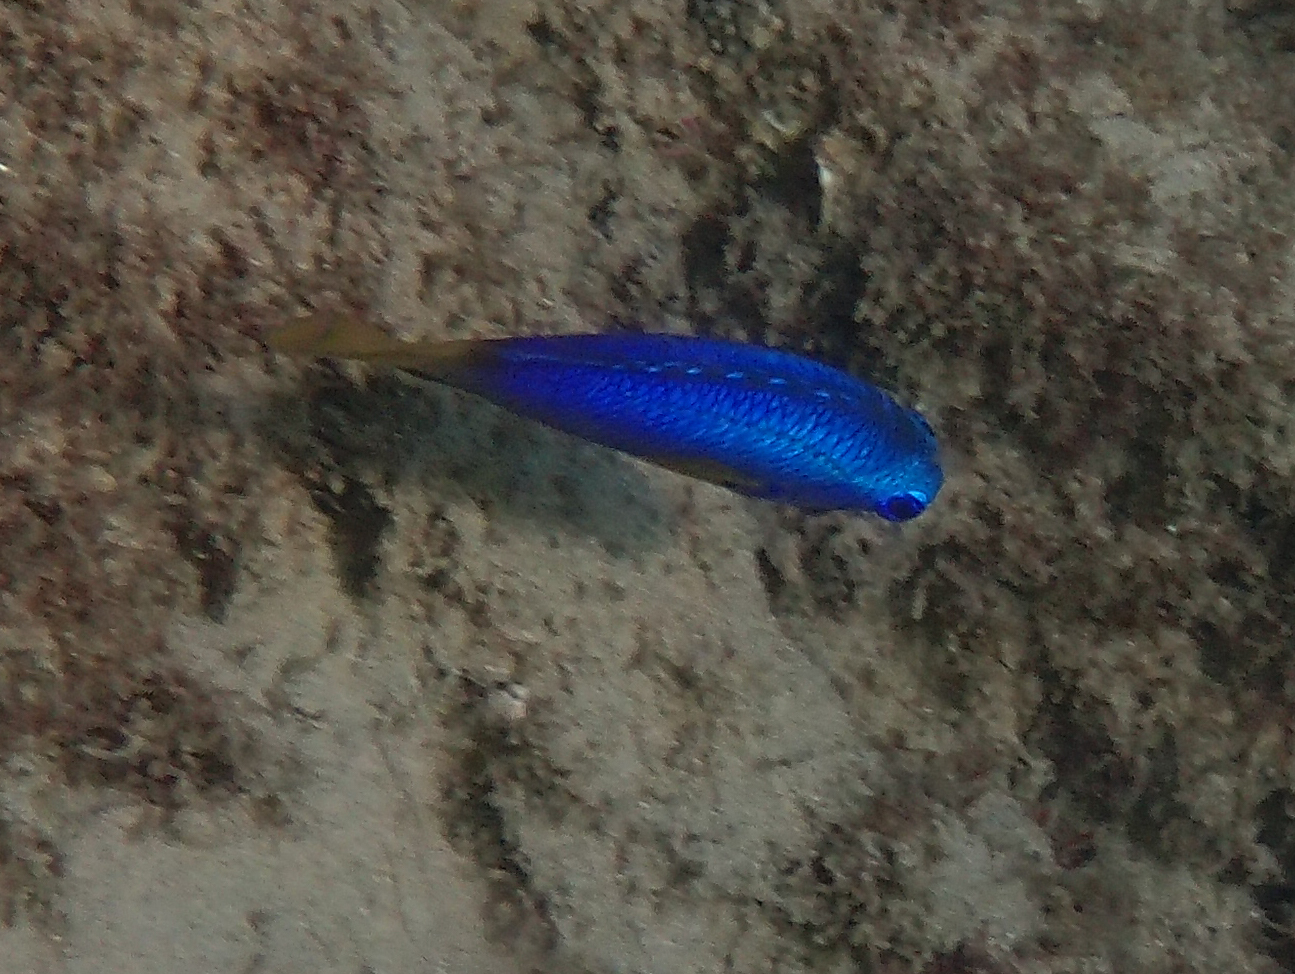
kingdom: Animalia
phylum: Chordata
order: Perciformes
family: Pomacentridae
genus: Pomacentrus
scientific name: Pomacentrus coelestis
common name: Neon damsel
